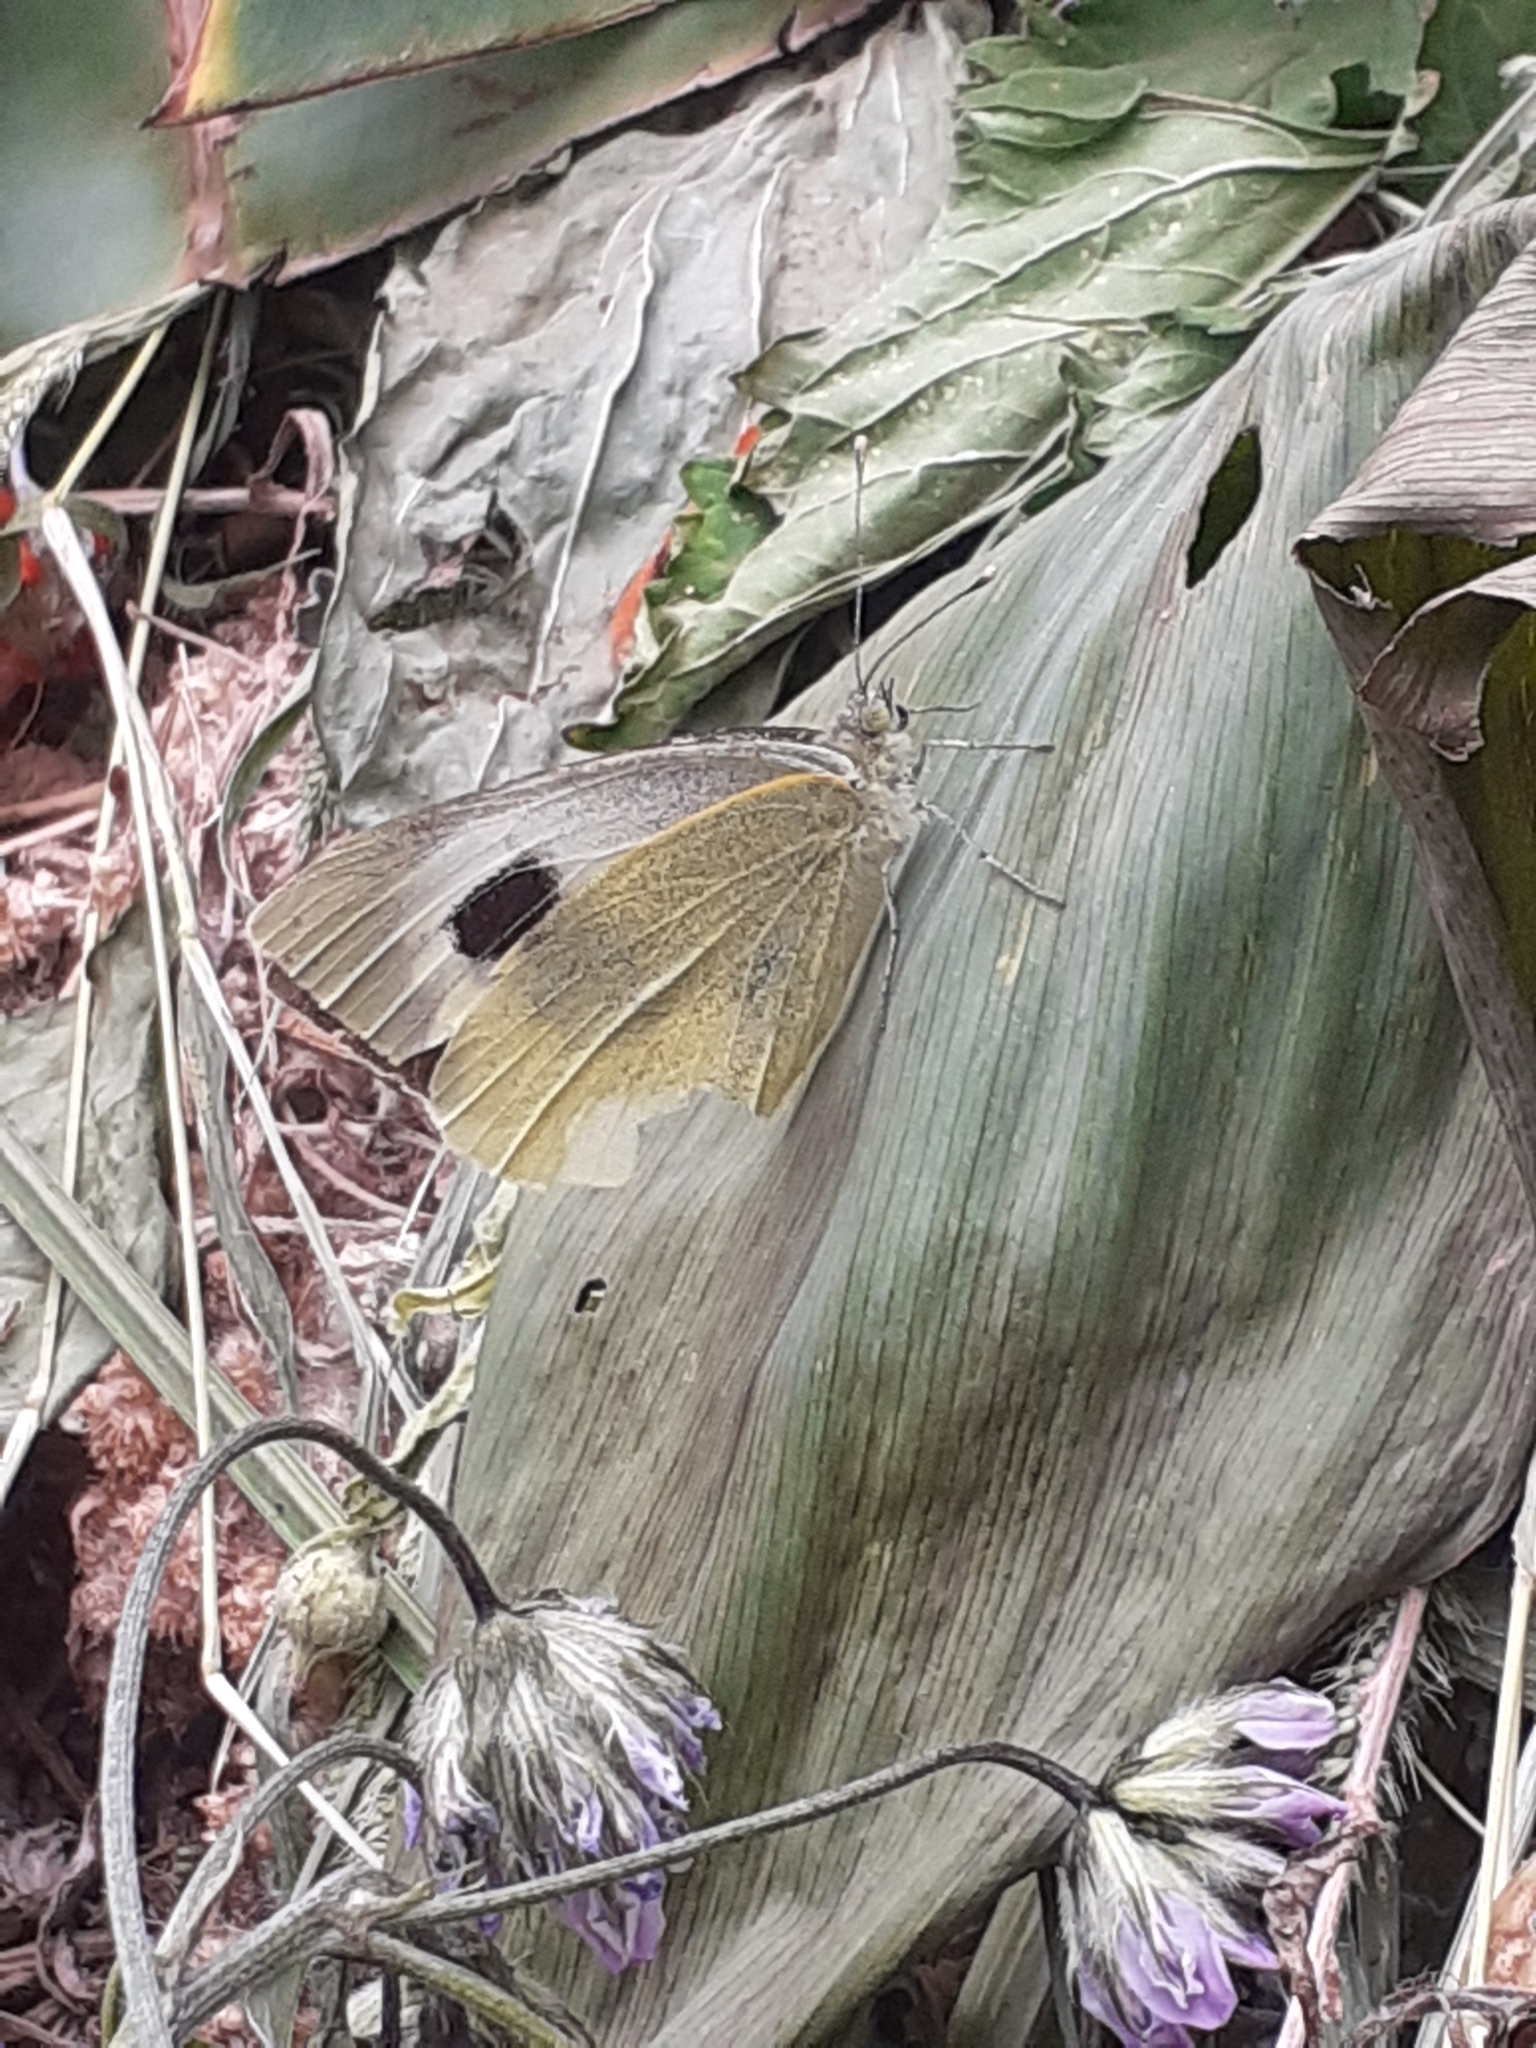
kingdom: Animalia
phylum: Arthropoda
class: Insecta
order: Lepidoptera
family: Pieridae
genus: Pieris
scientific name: Pieris cheiranthi
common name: Canary islands large white
